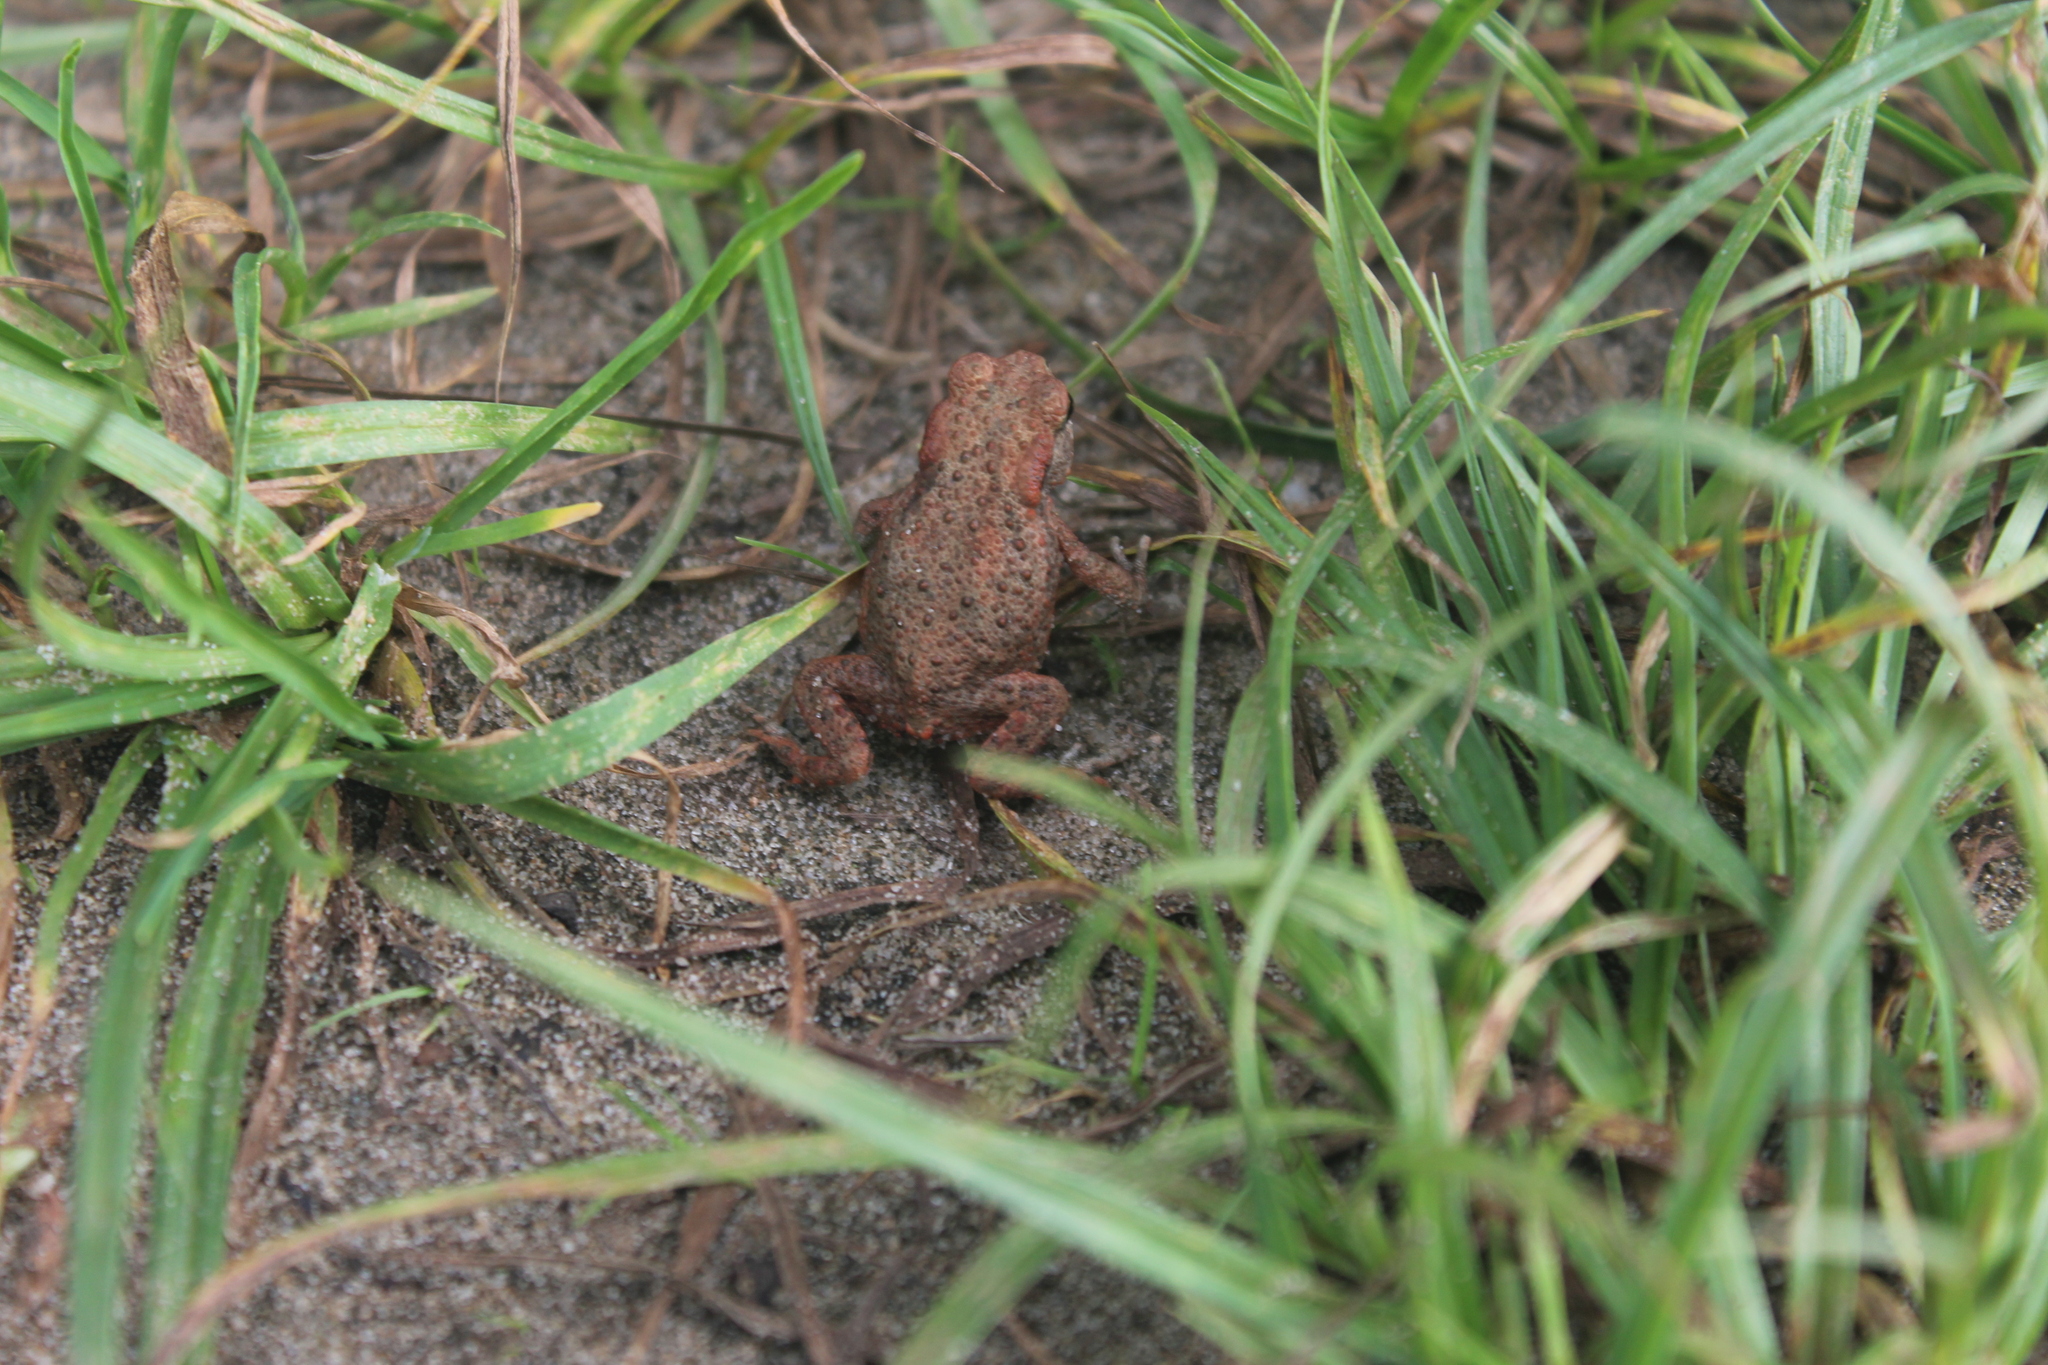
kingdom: Animalia
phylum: Chordata
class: Amphibia
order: Anura
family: Bufonidae
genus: Bufo
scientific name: Bufo bufo
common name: Common toad
